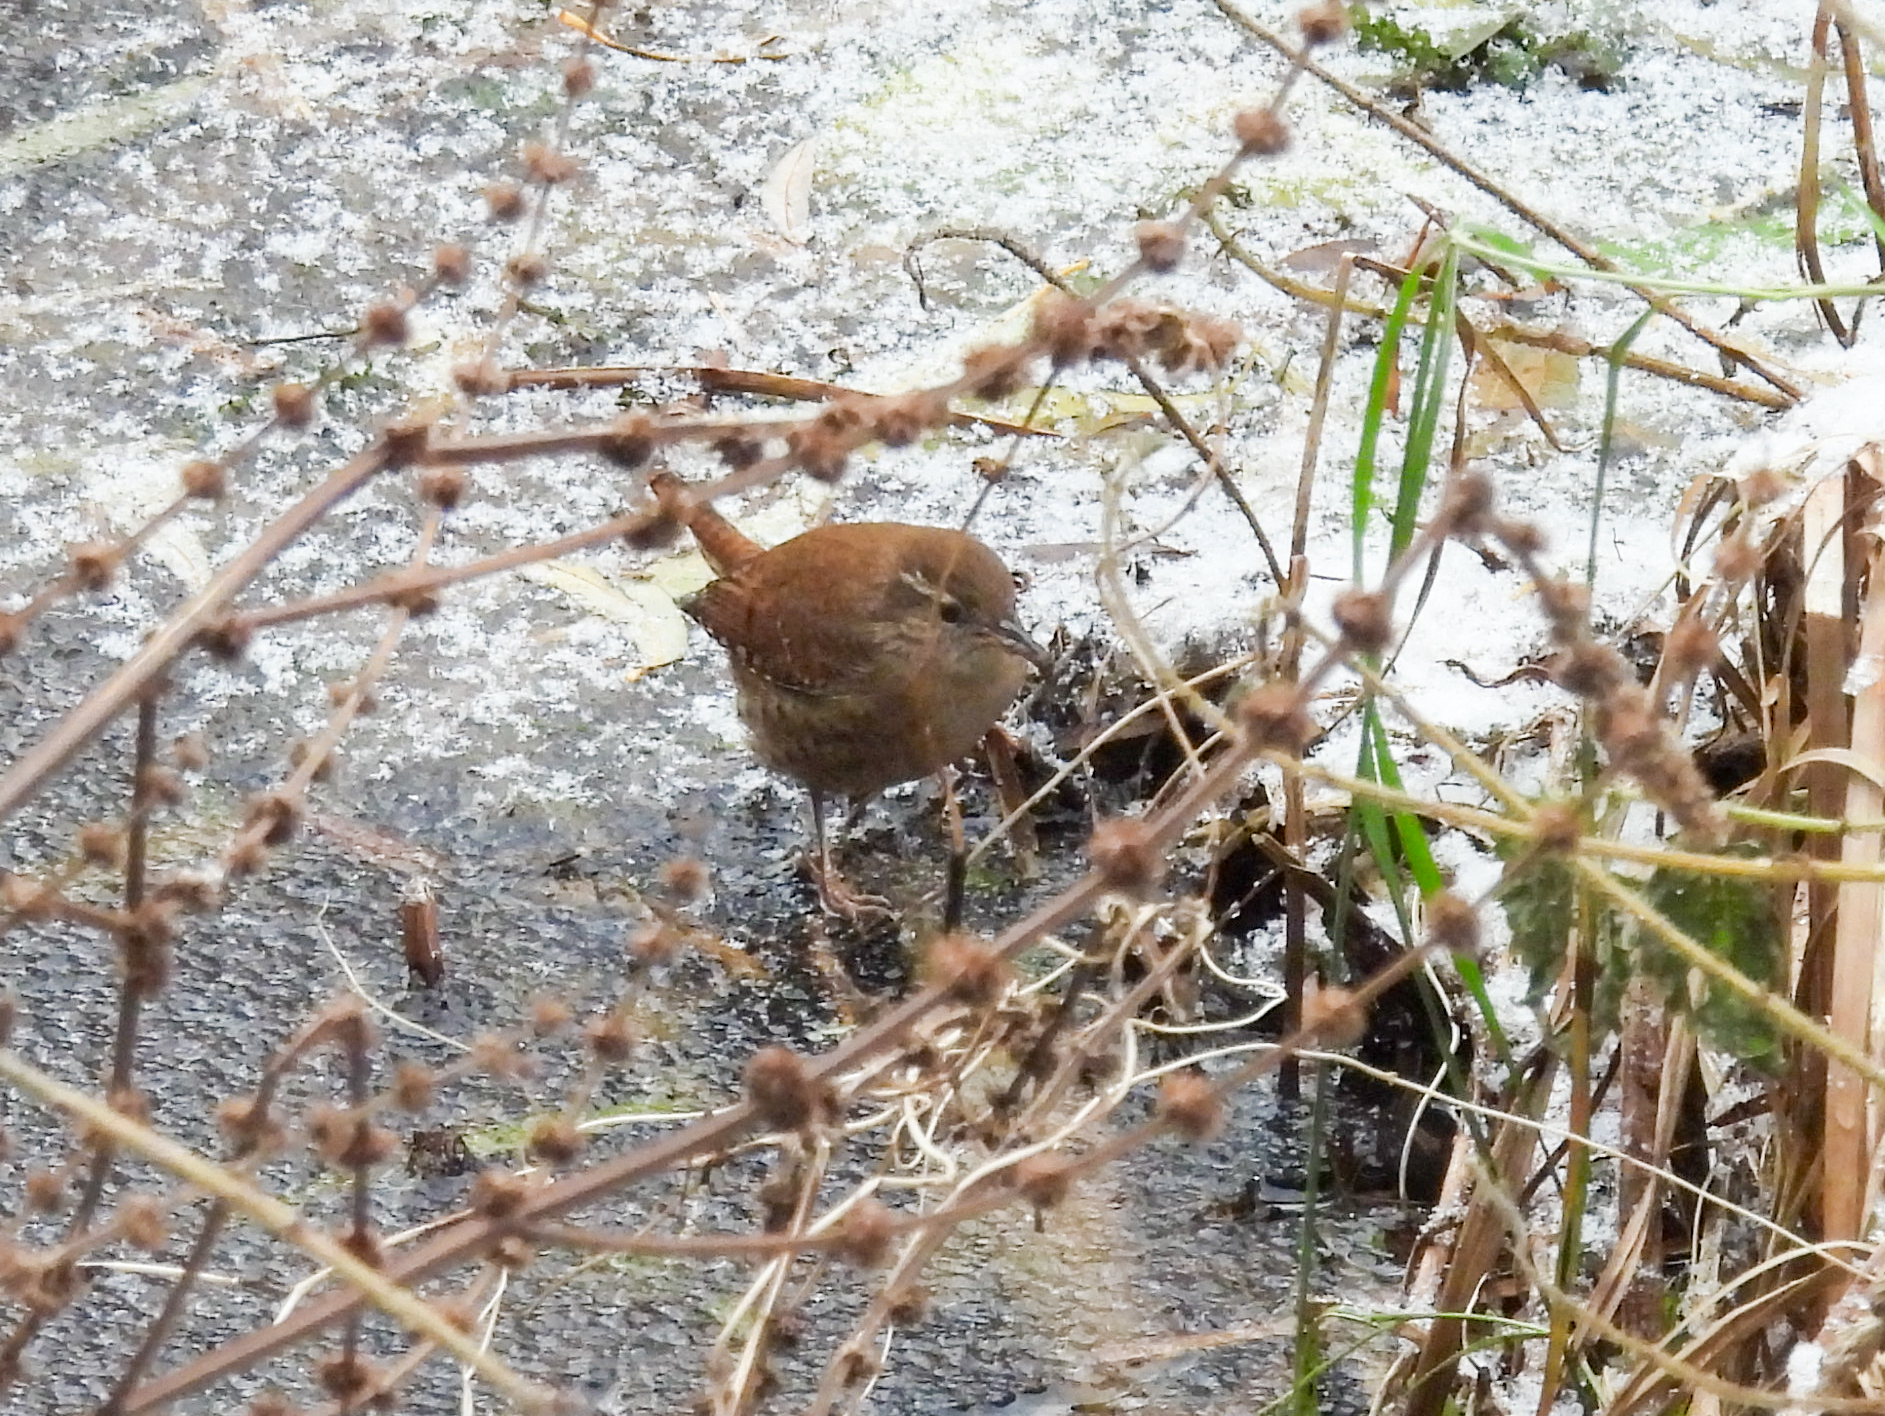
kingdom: Animalia
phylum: Chordata
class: Aves
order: Passeriformes
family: Troglodytidae
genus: Troglodytes
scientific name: Troglodytes troglodytes
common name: Eurasian wren
